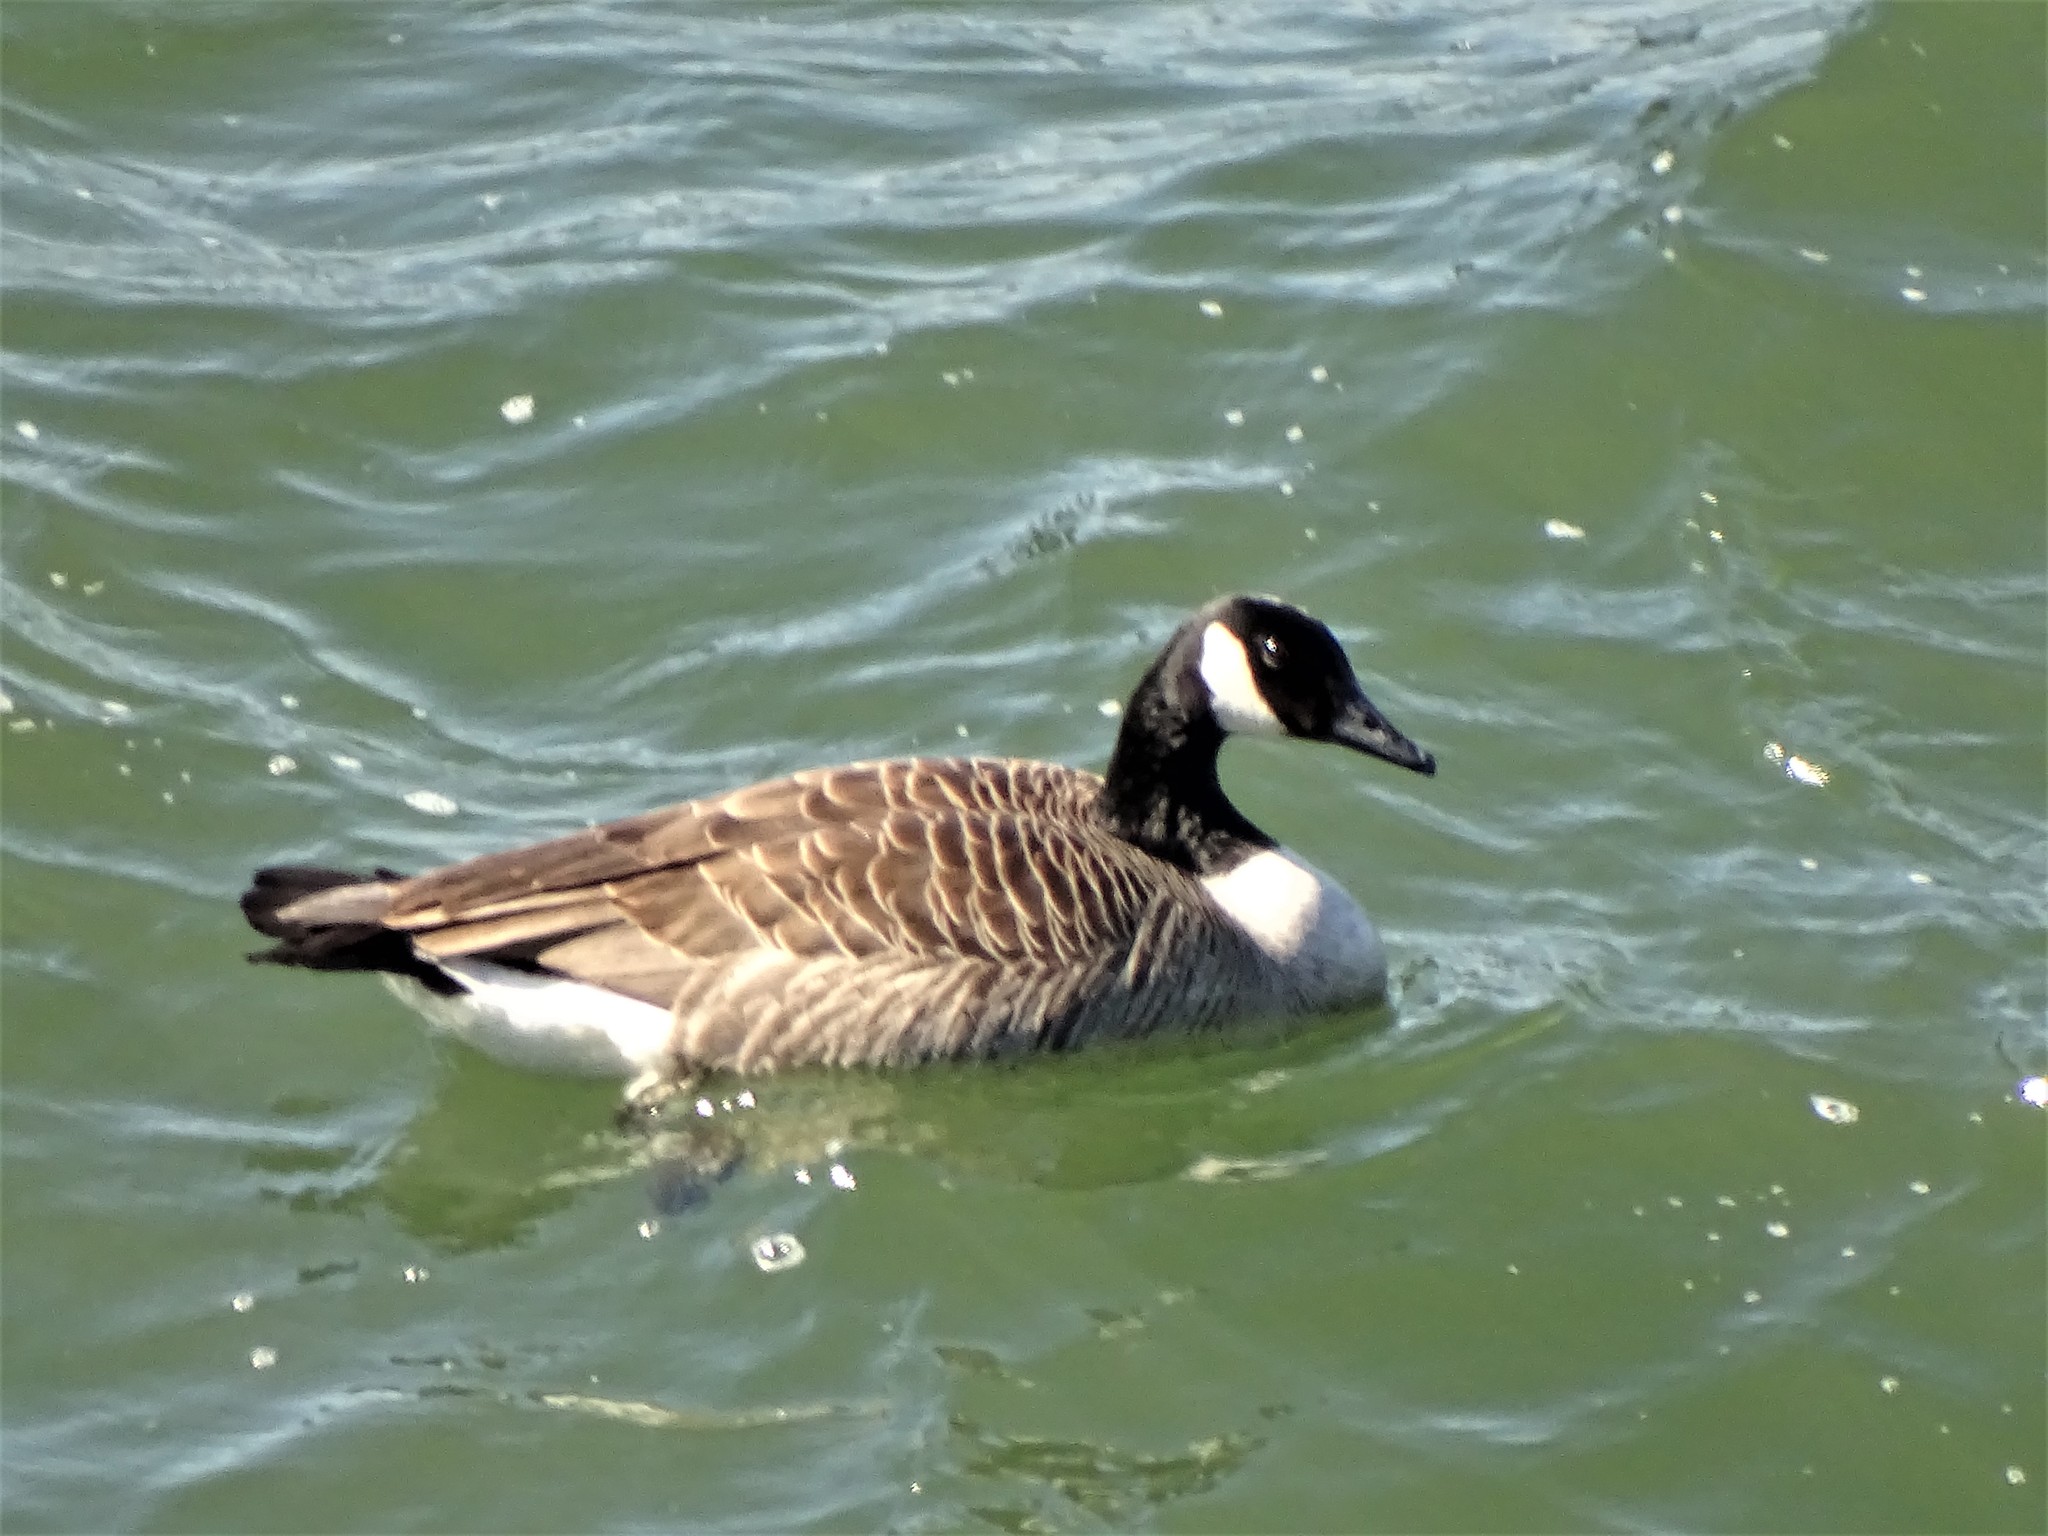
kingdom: Animalia
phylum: Chordata
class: Aves
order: Anseriformes
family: Anatidae
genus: Branta
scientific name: Branta canadensis
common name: Canada goose
